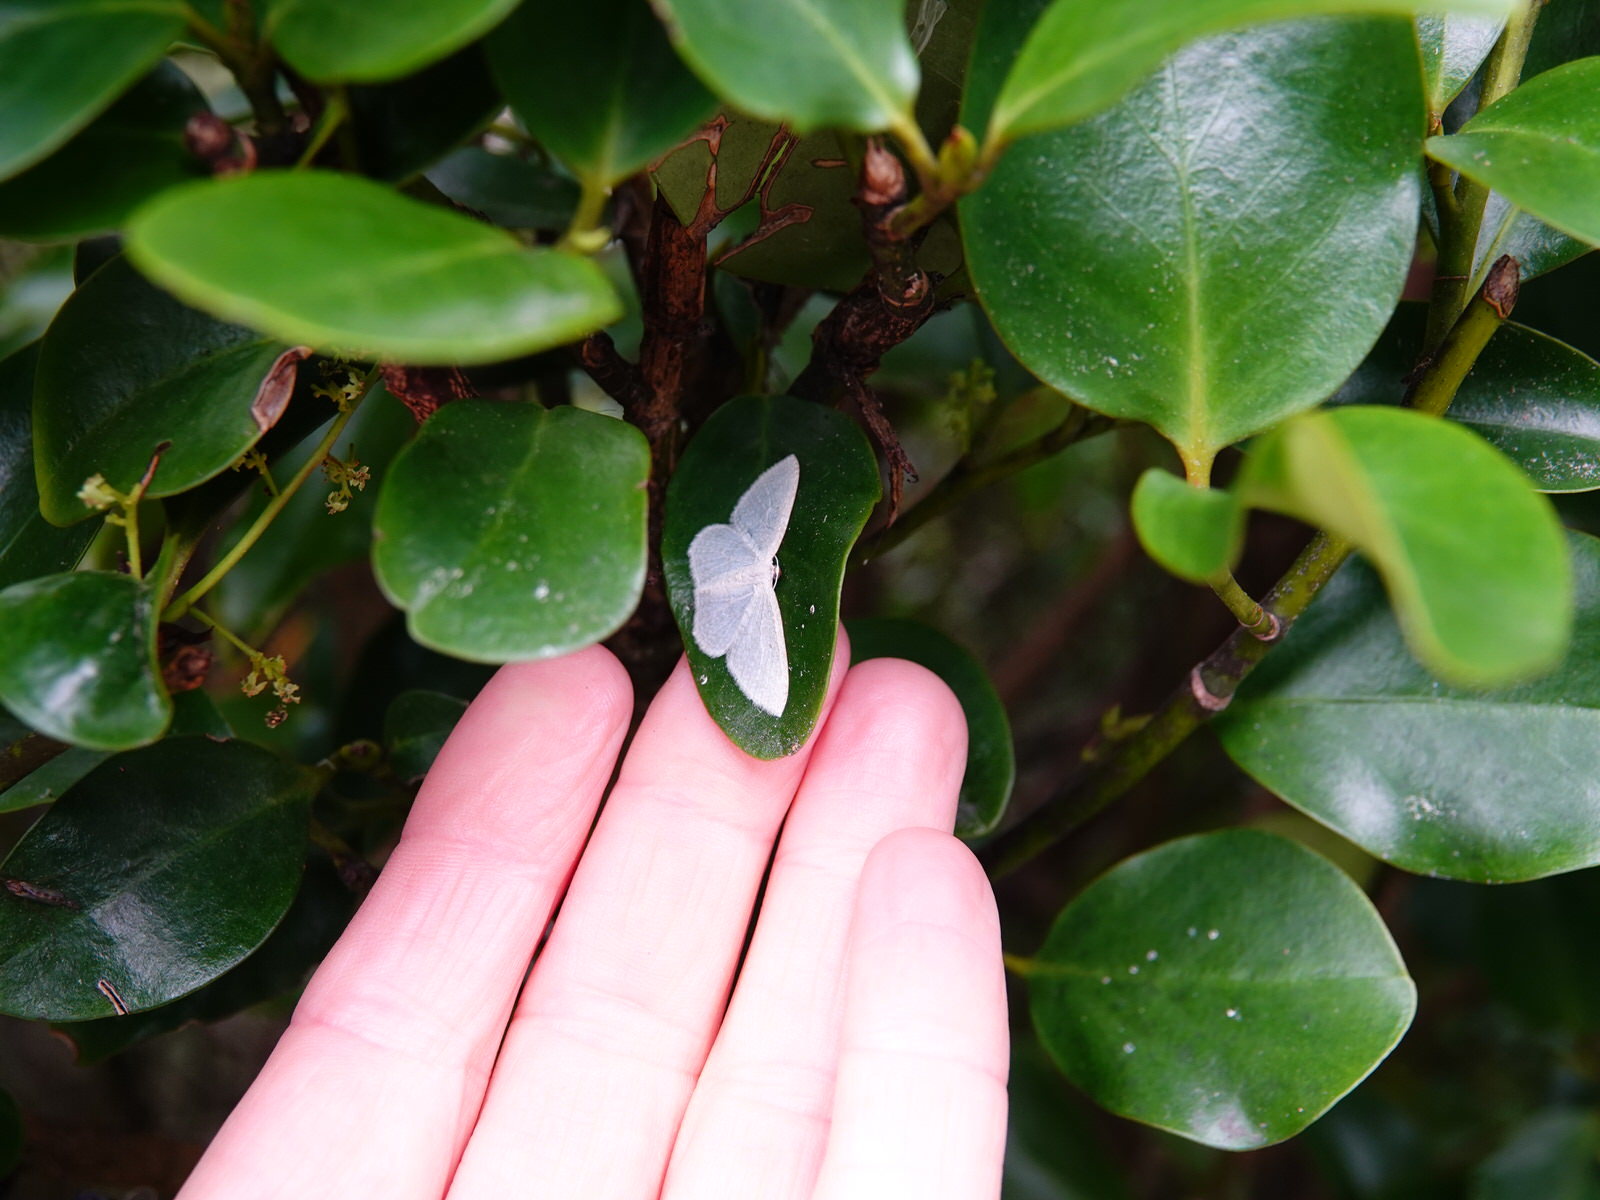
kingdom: Animalia
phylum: Arthropoda
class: Insecta
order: Lepidoptera
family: Geometridae
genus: Poecilasthena
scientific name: Poecilasthena pulchraria
